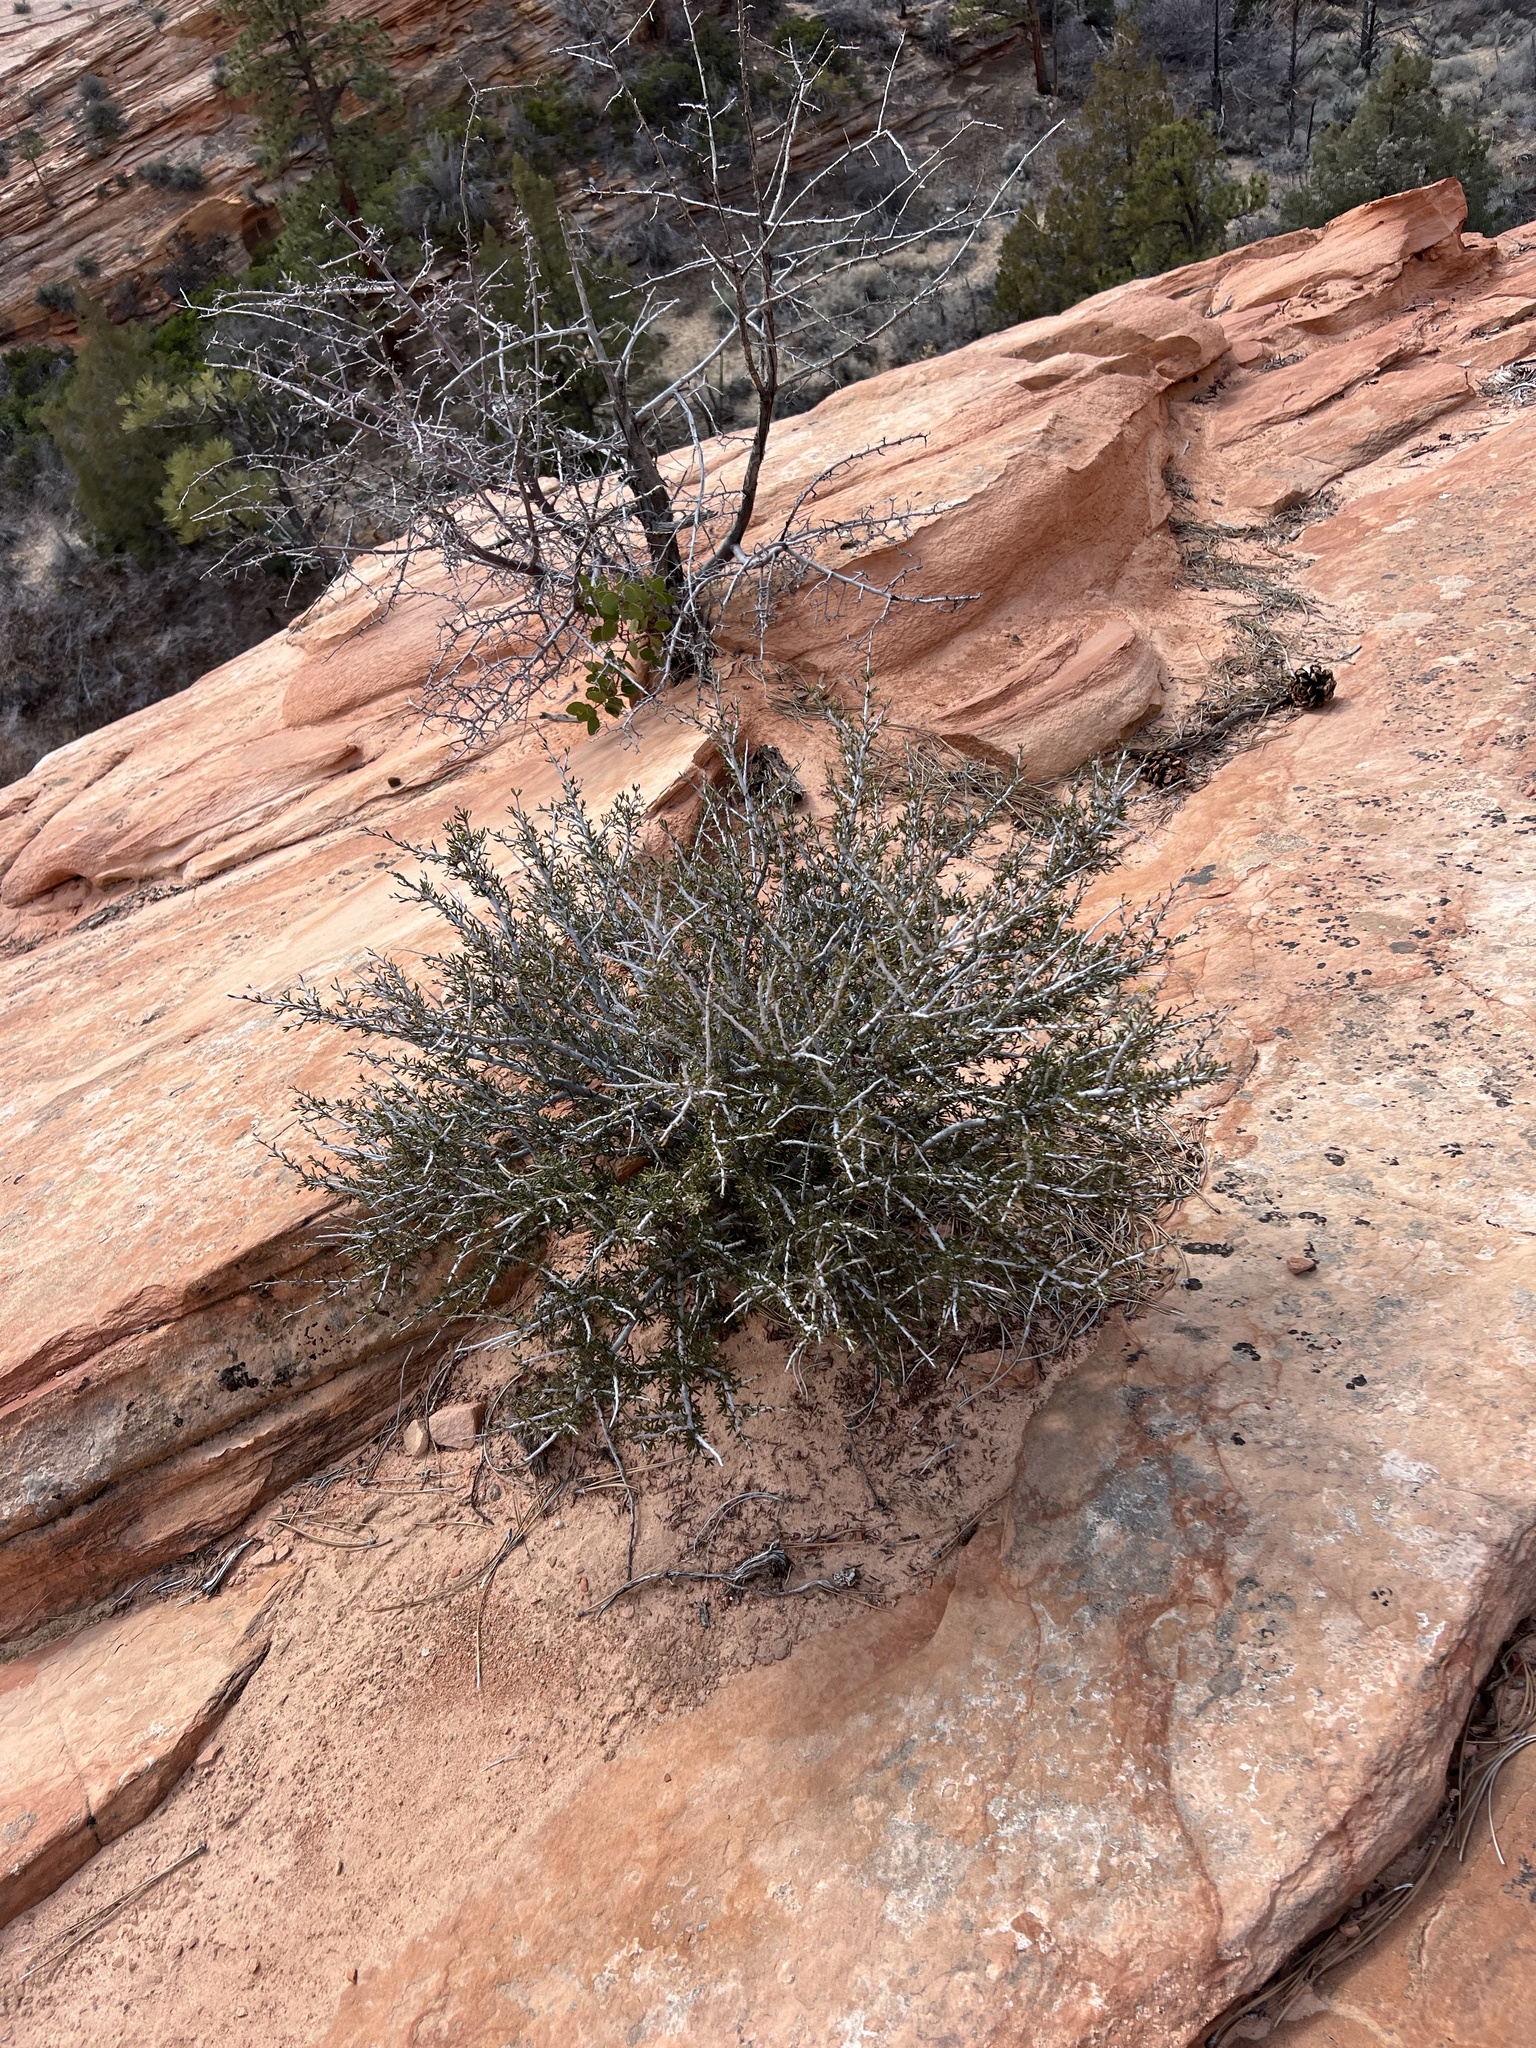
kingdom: Plantae
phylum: Tracheophyta
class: Magnoliopsida
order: Rosales
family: Rosaceae
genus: Cercocarpus
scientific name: Cercocarpus intricatus
